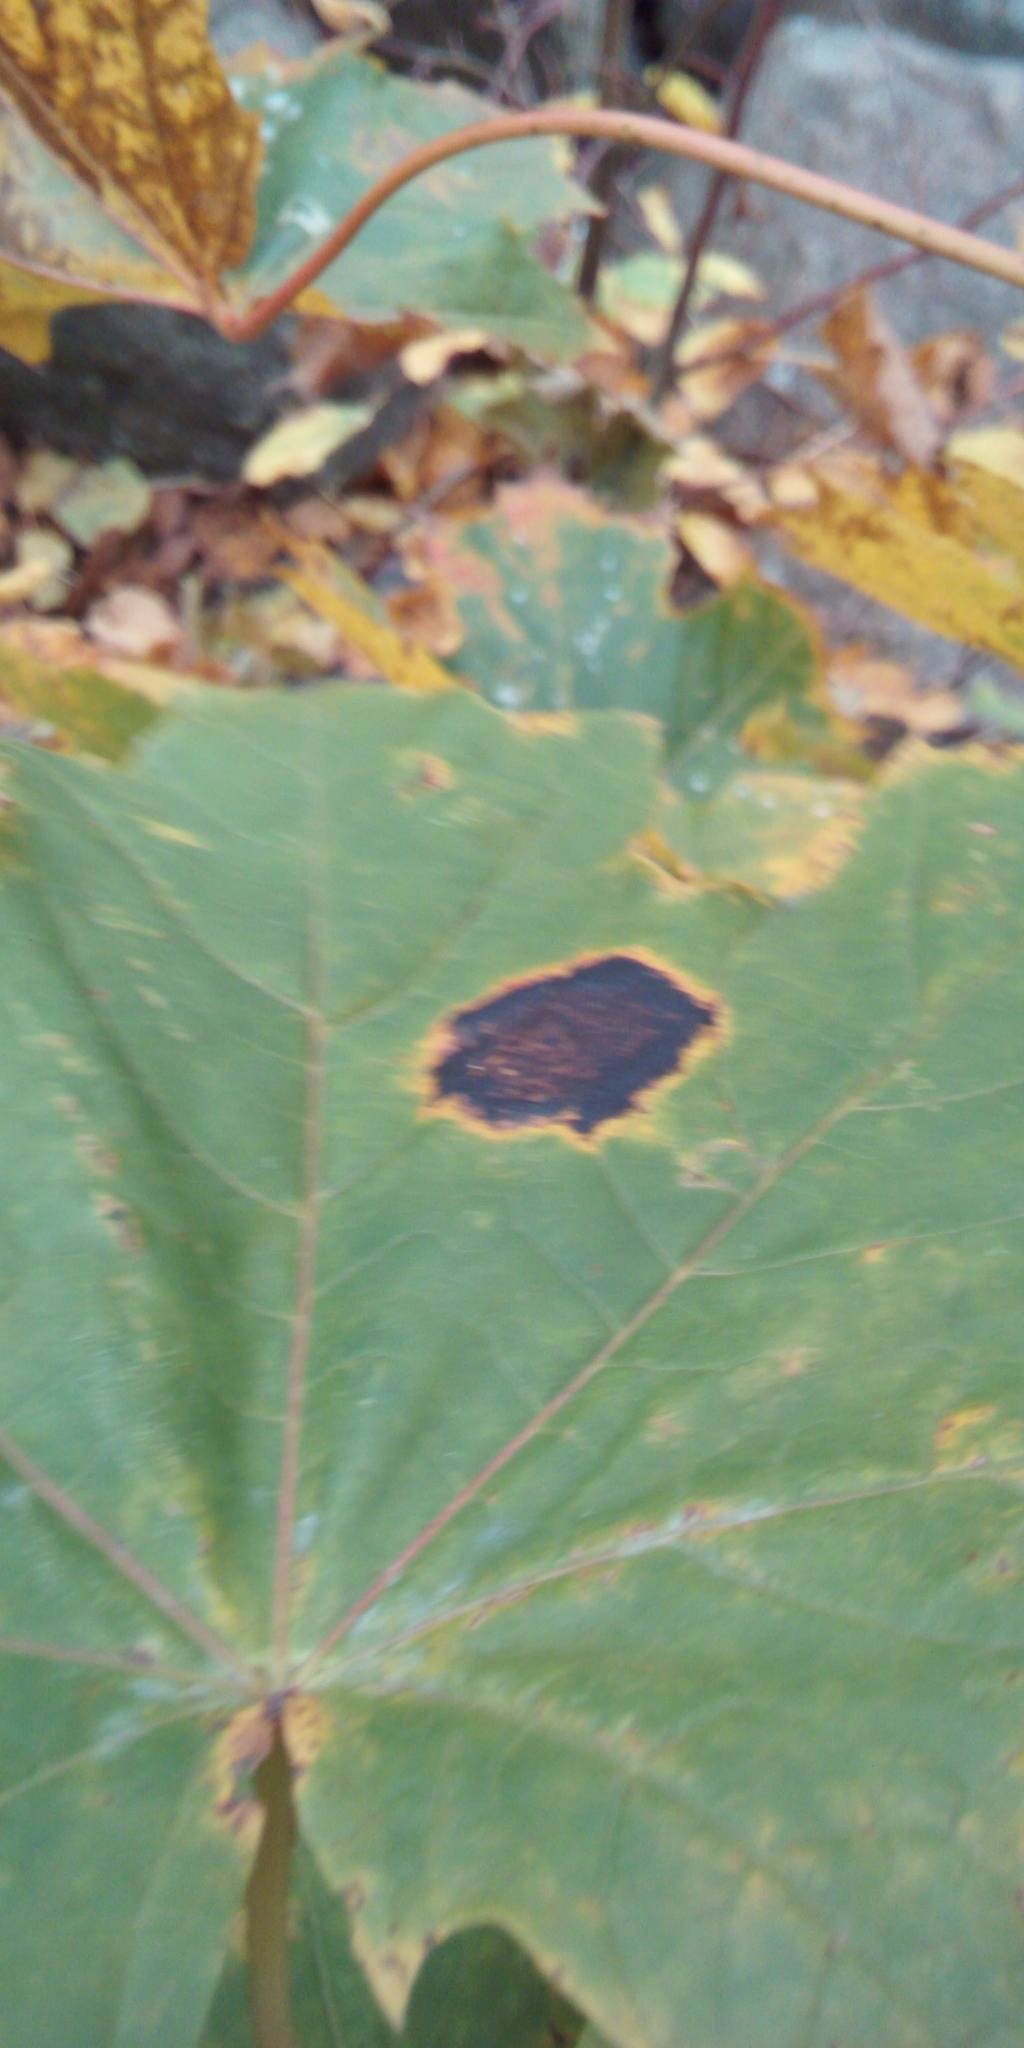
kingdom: Fungi
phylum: Ascomycota
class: Leotiomycetes
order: Rhytismatales
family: Rhytismataceae
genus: Rhytisma
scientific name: Rhytisma acerinum
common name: European tar spot
